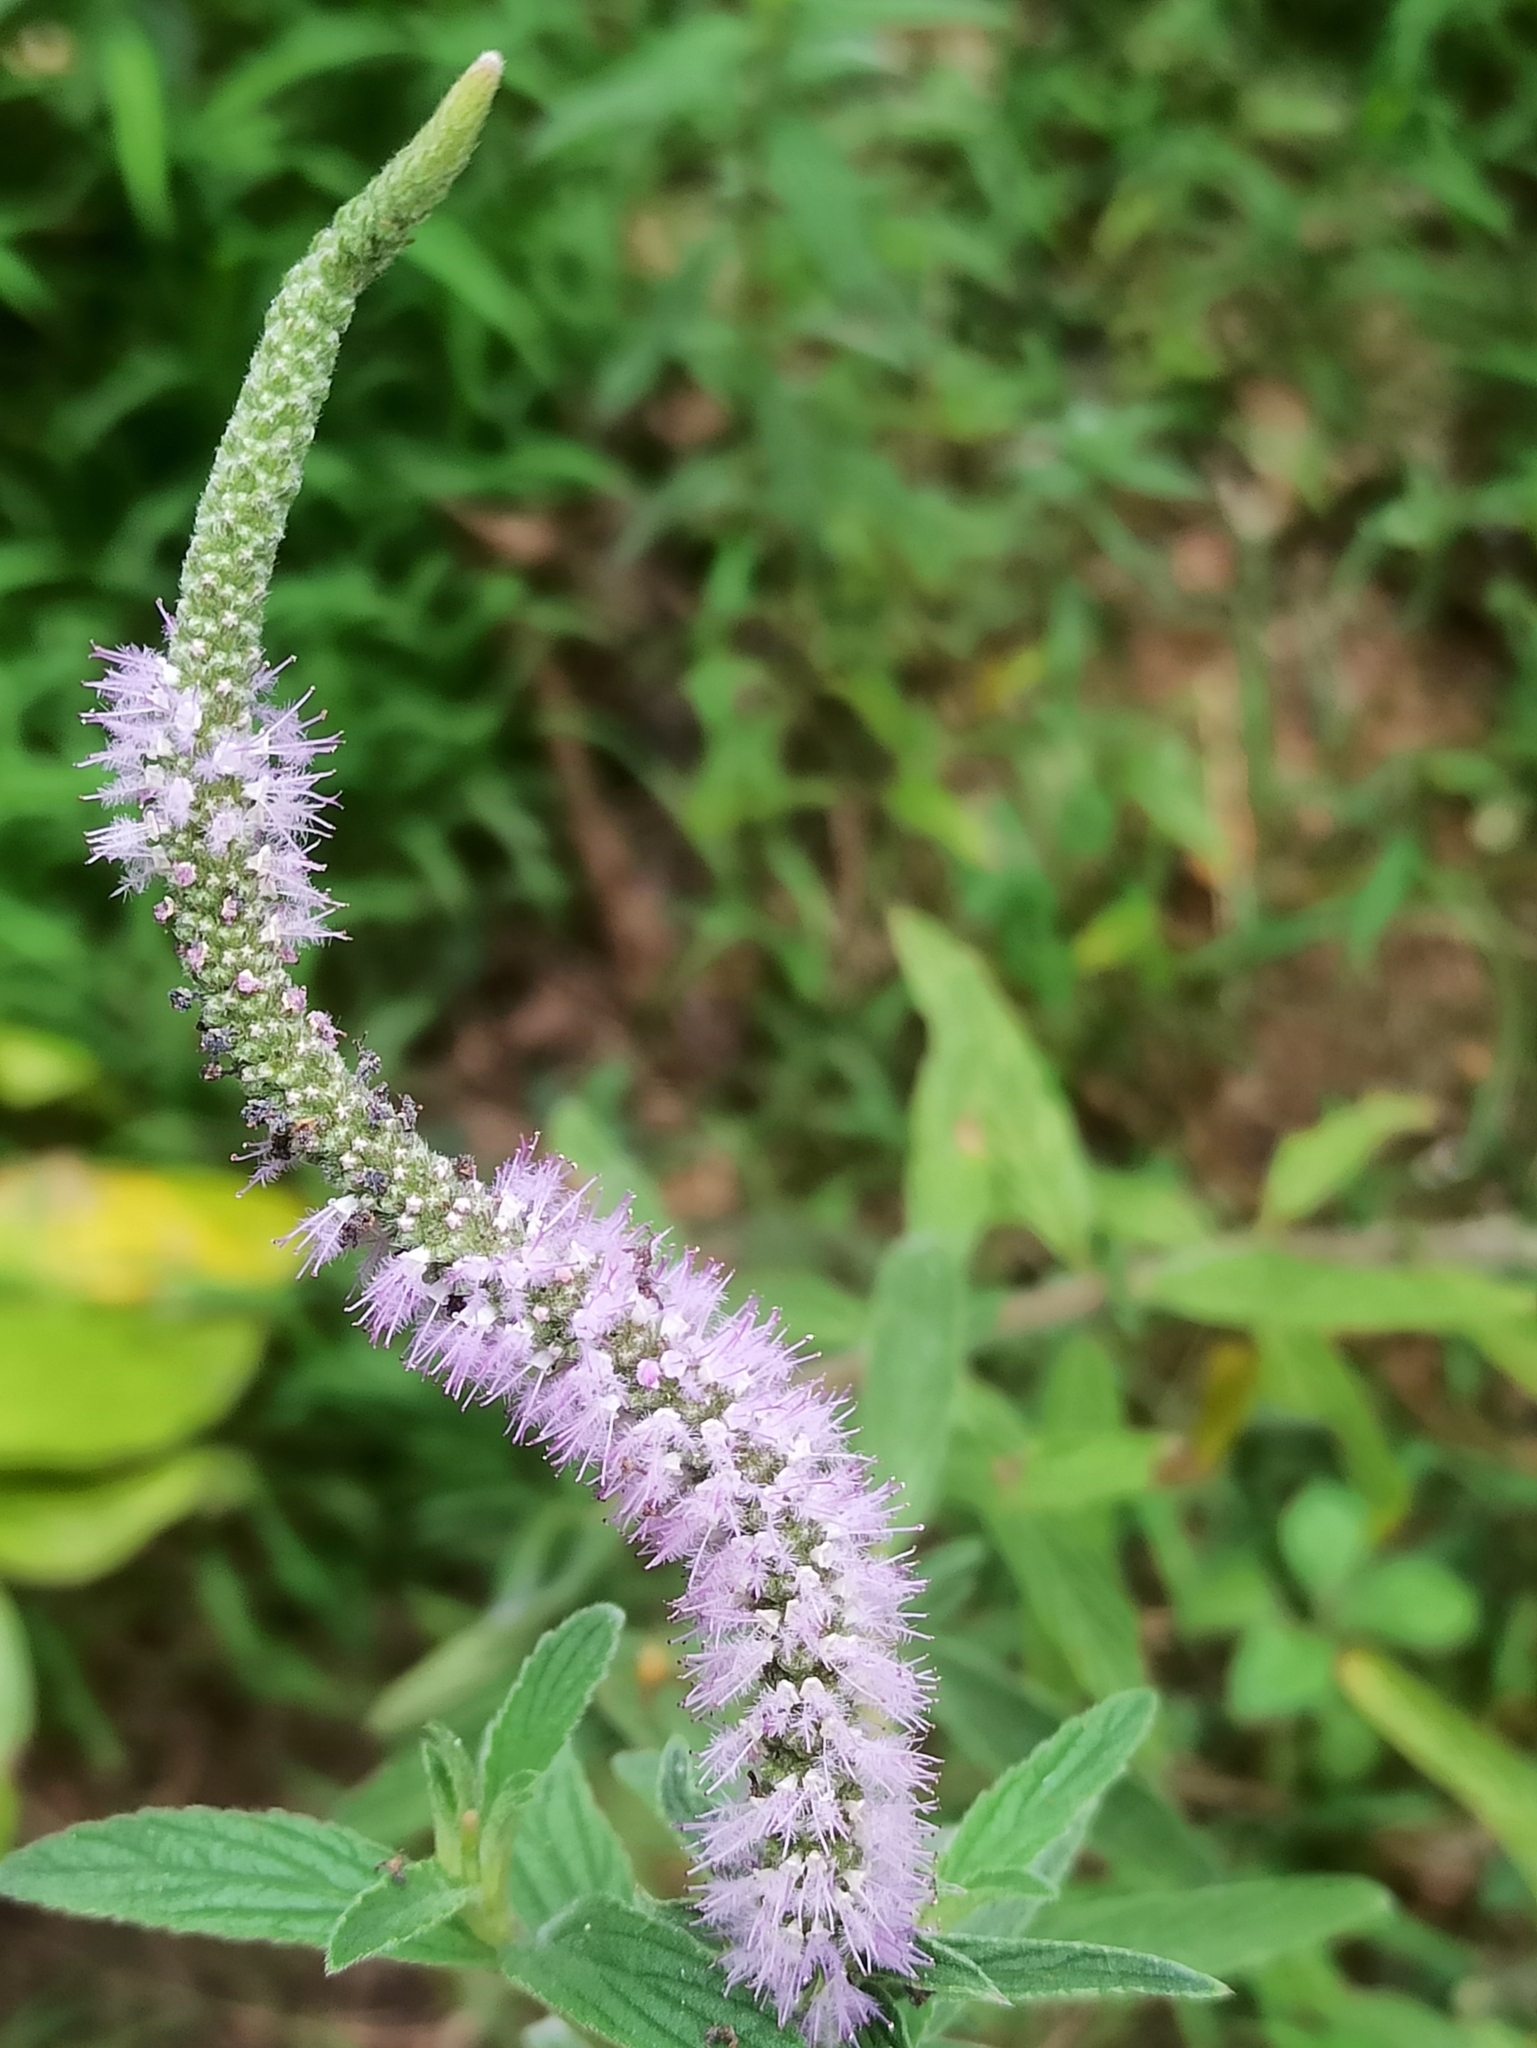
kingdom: Plantae
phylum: Tracheophyta
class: Magnoliopsida
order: Lamiales
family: Lamiaceae
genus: Pogostemon
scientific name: Pogostemon quadrifolius
